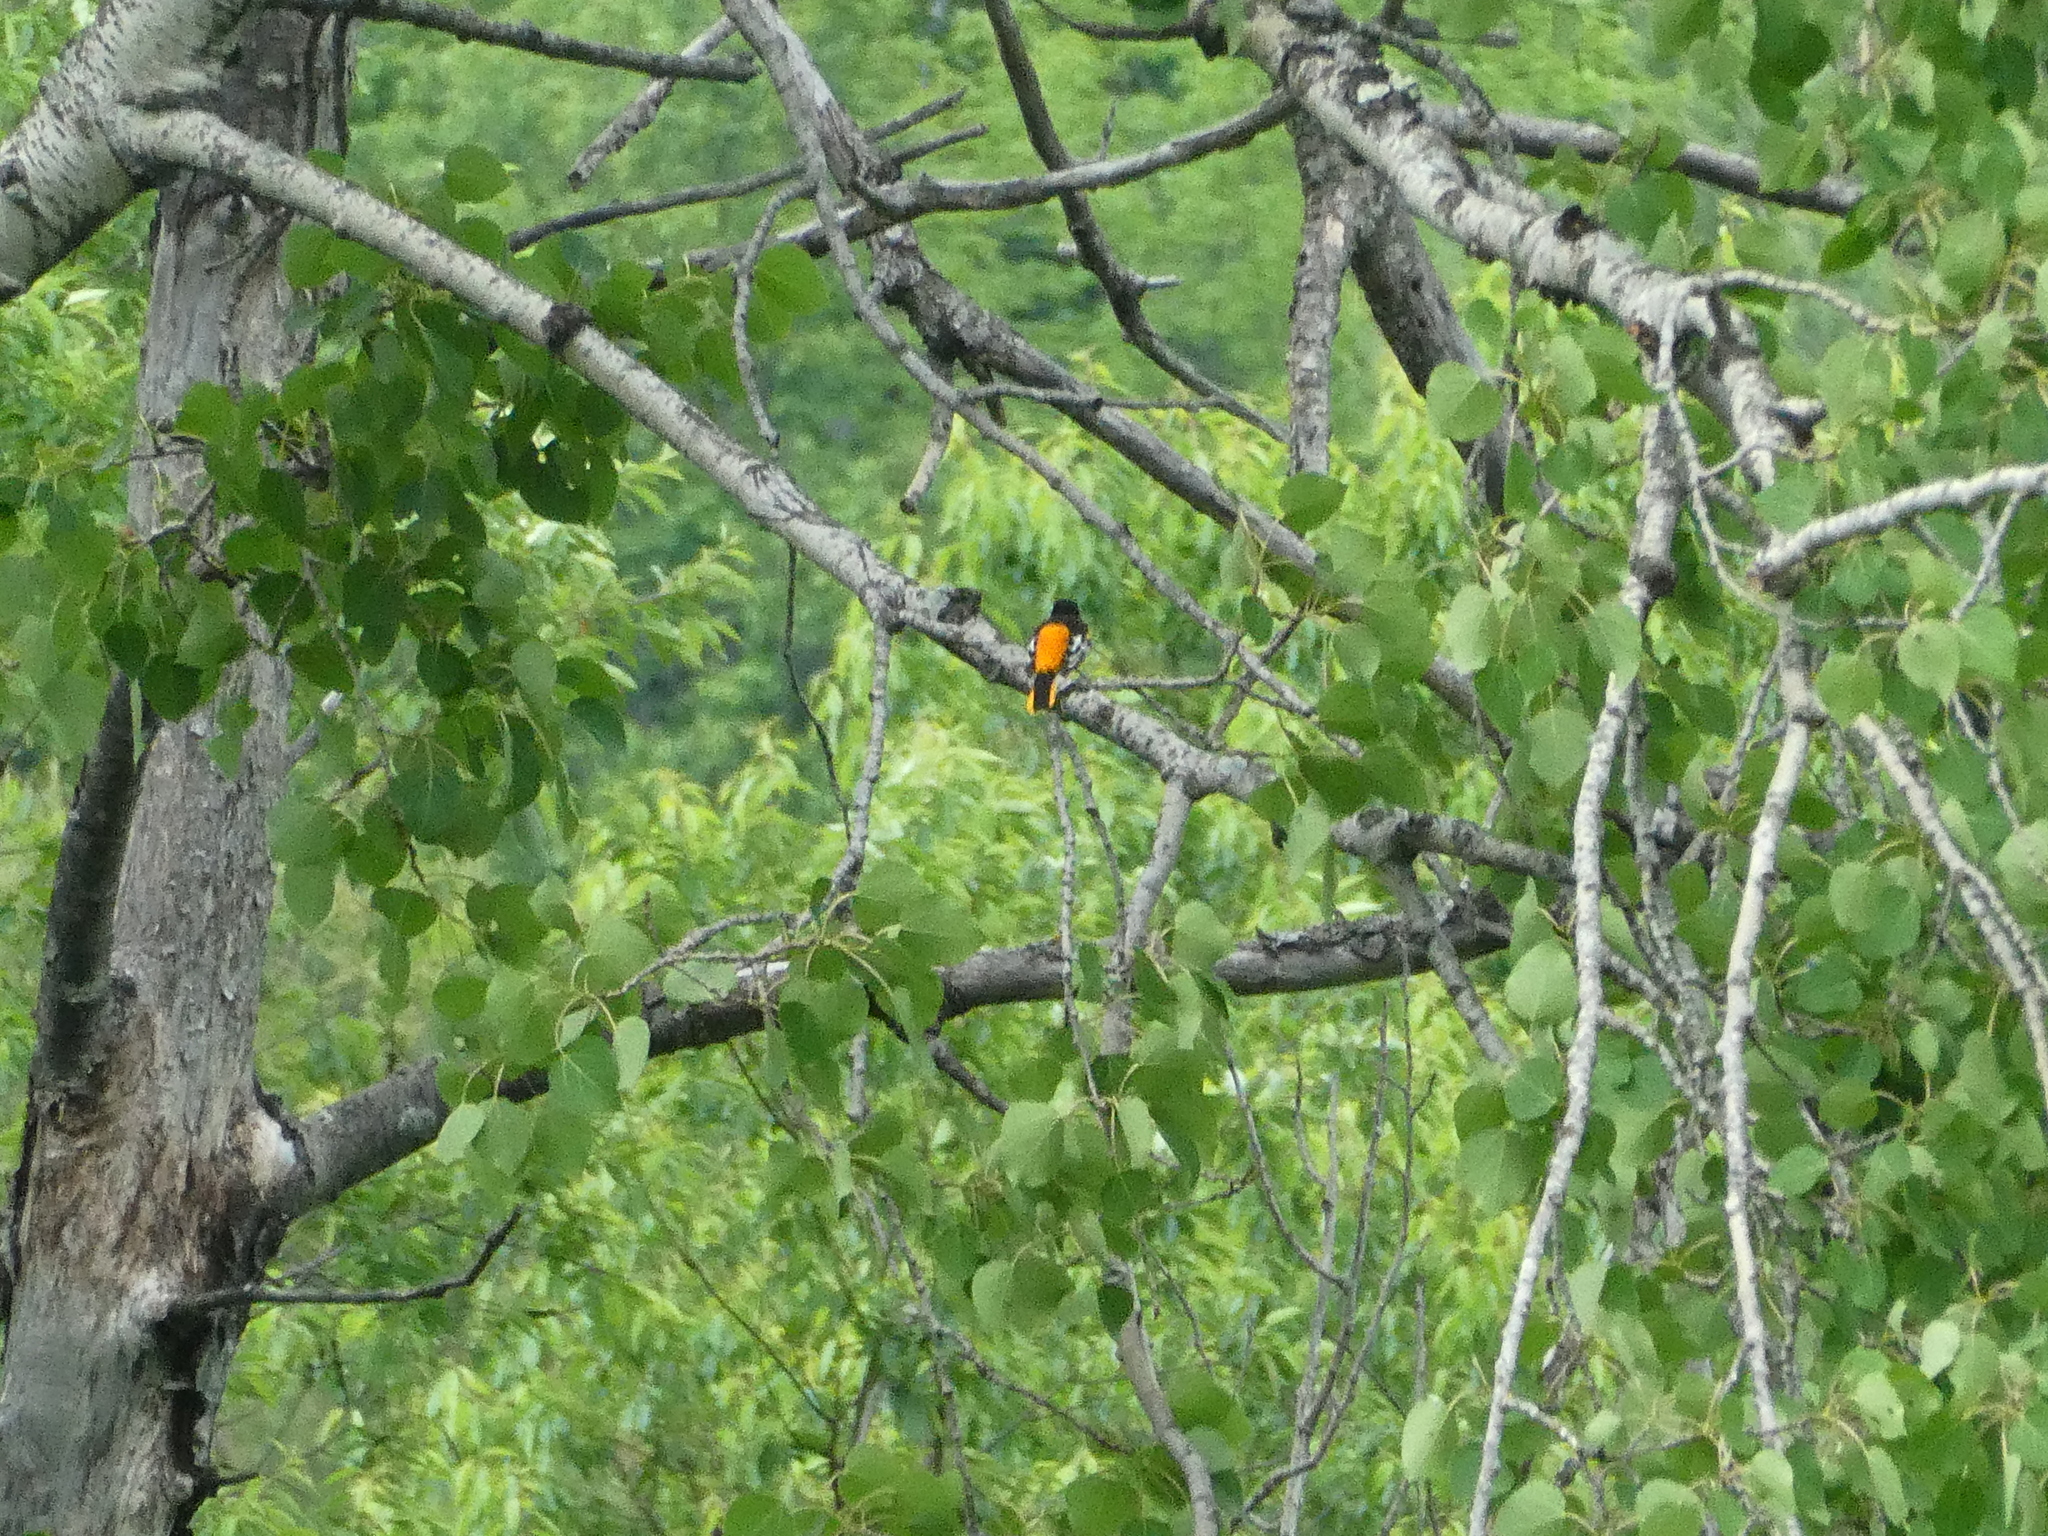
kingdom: Animalia
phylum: Chordata
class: Aves
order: Passeriformes
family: Icteridae
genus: Icterus
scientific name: Icterus galbula
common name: Baltimore oriole
